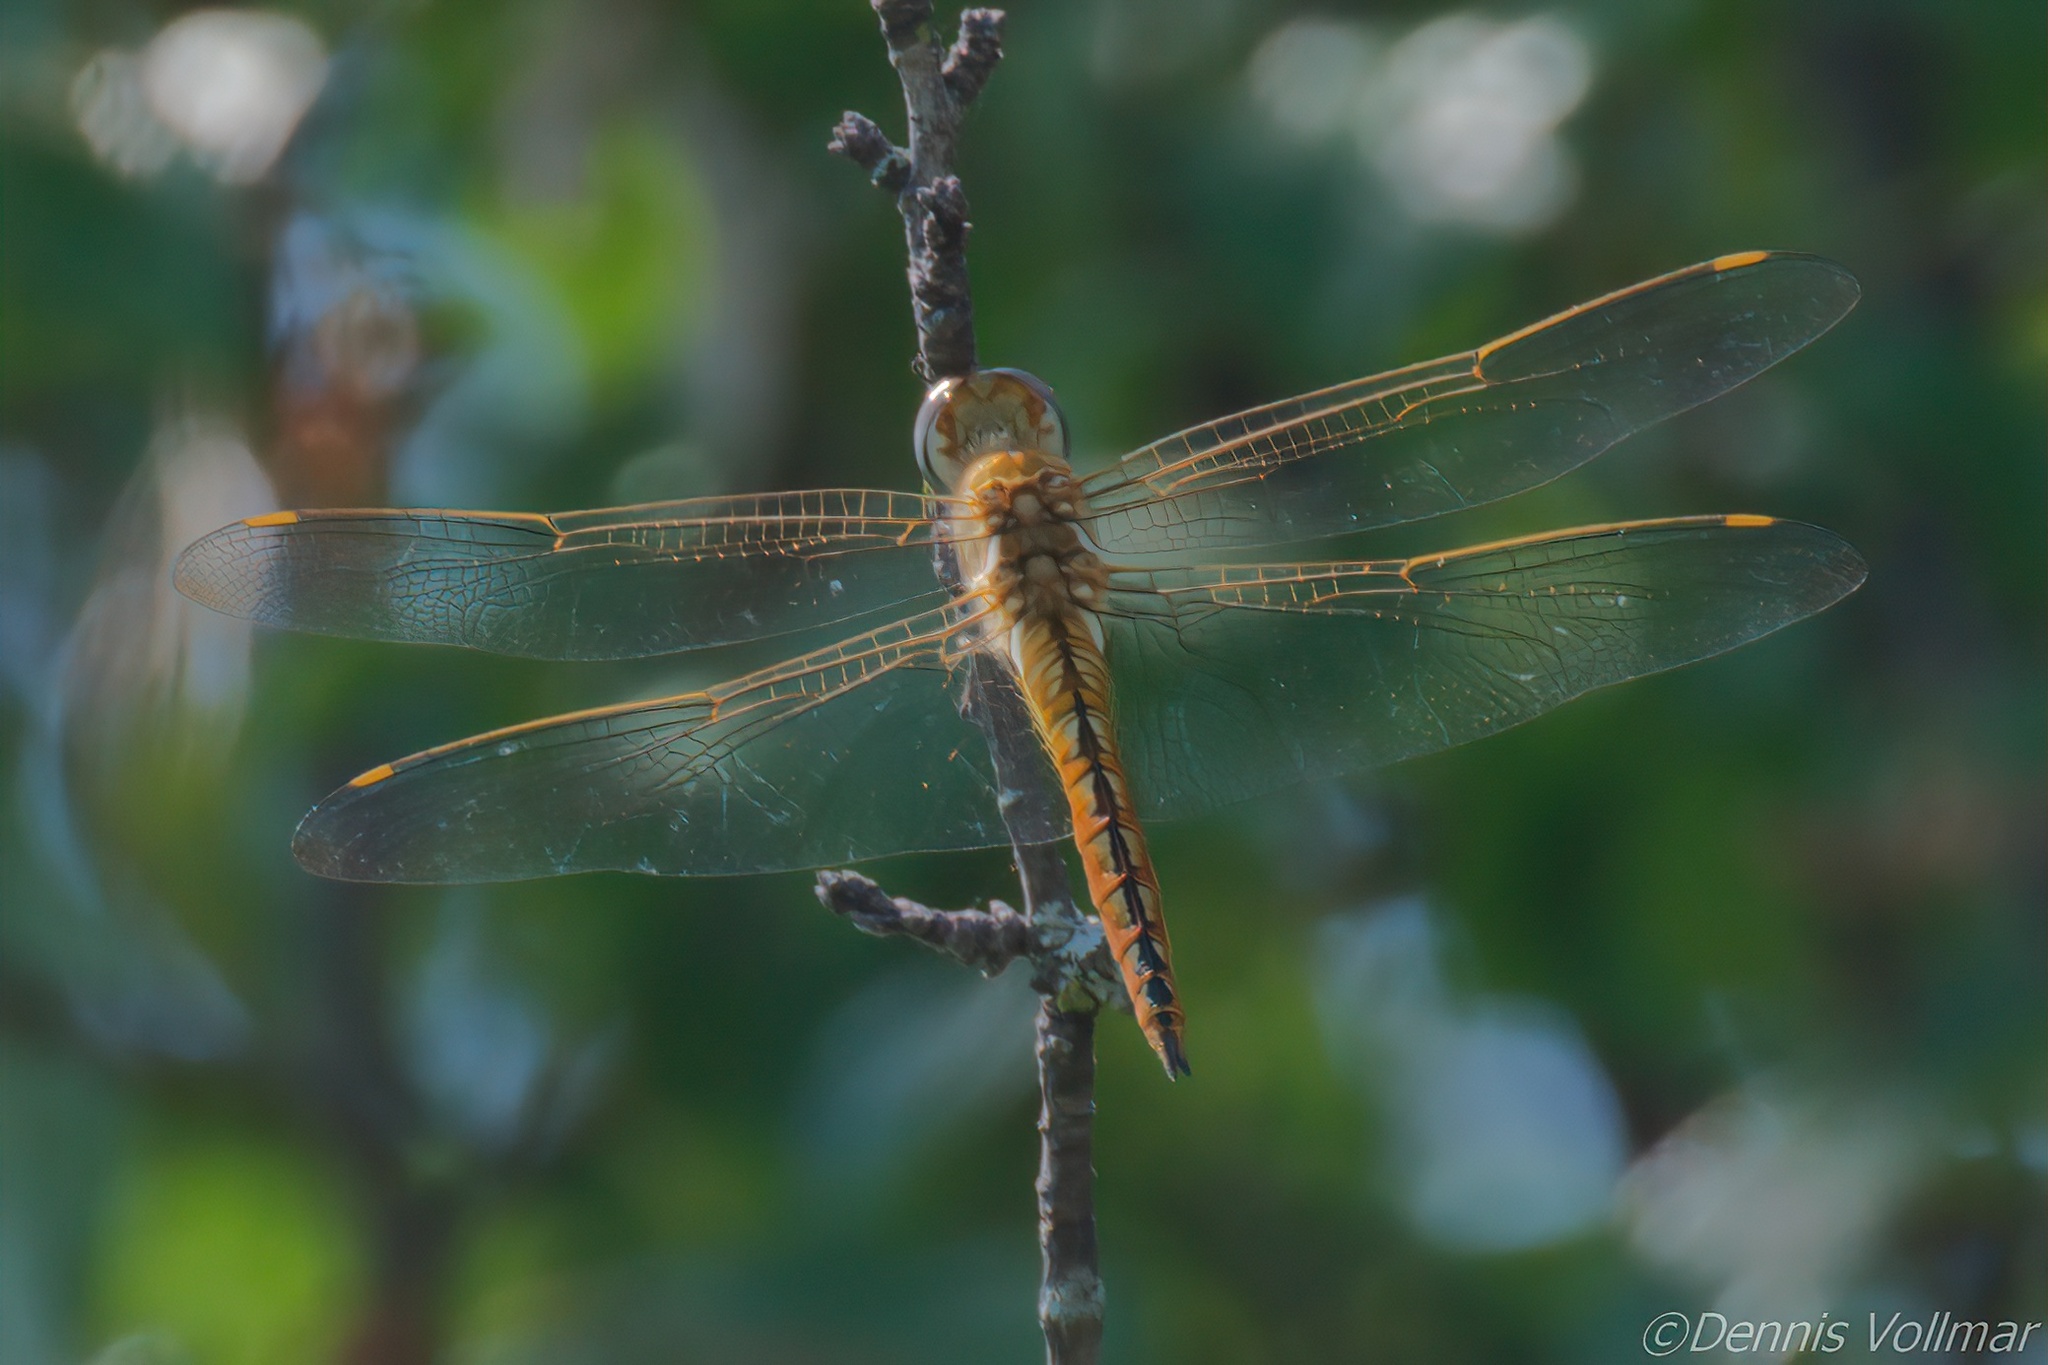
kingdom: Animalia
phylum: Arthropoda
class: Insecta
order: Odonata
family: Libellulidae
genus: Pantala
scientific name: Pantala flavescens
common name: Wandering glider
